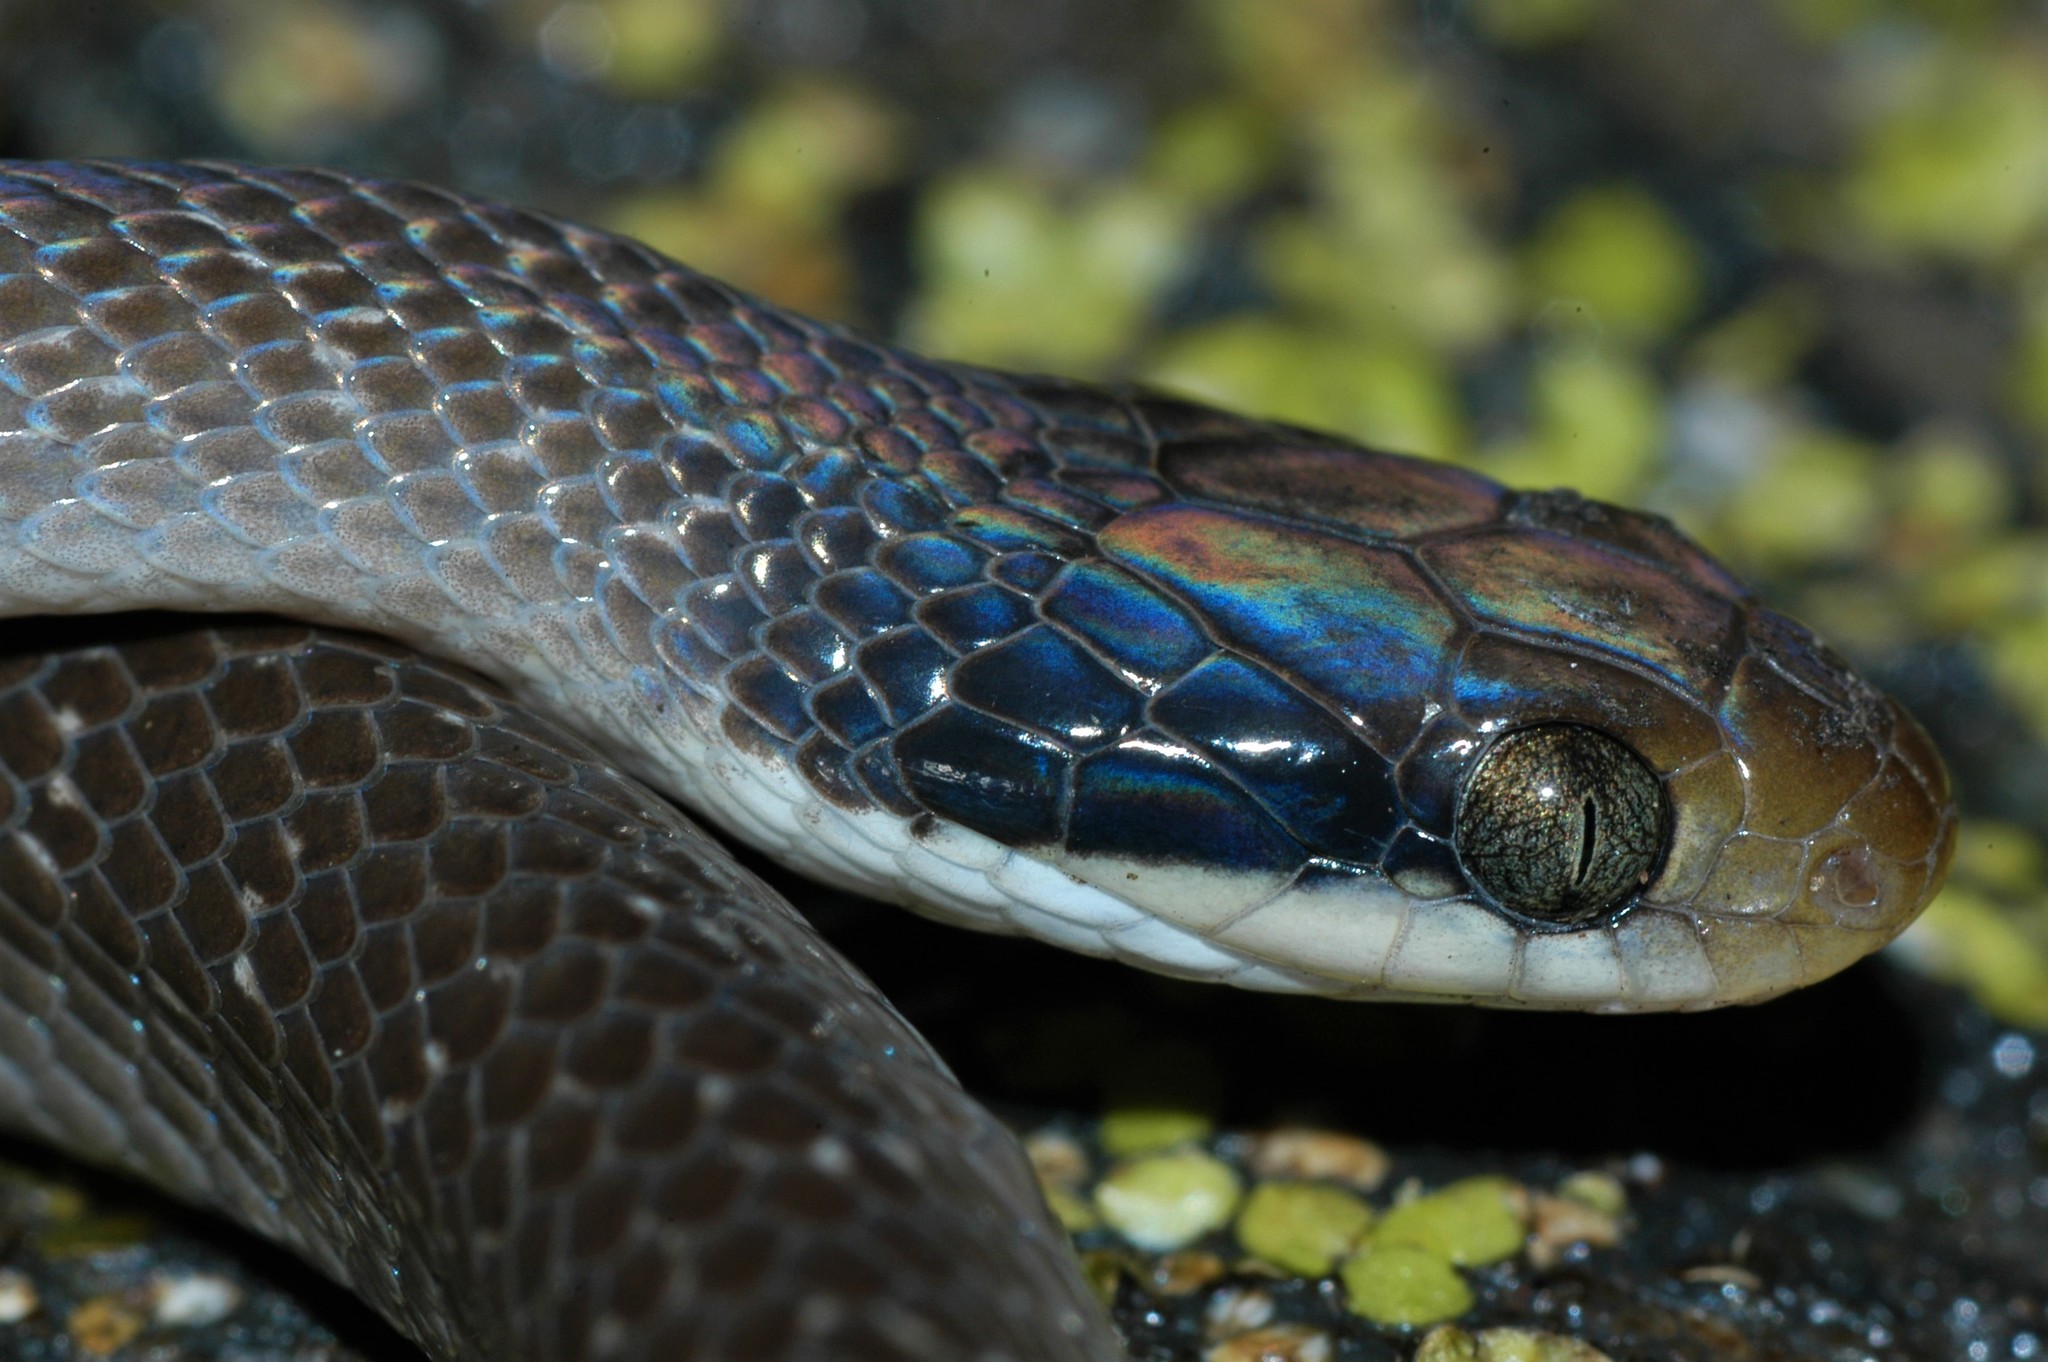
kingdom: Animalia
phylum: Chordata
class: Squamata
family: Colubridae
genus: Crotaphopeltis
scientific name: Crotaphopeltis hotamboeia
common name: Red-lipped snake
